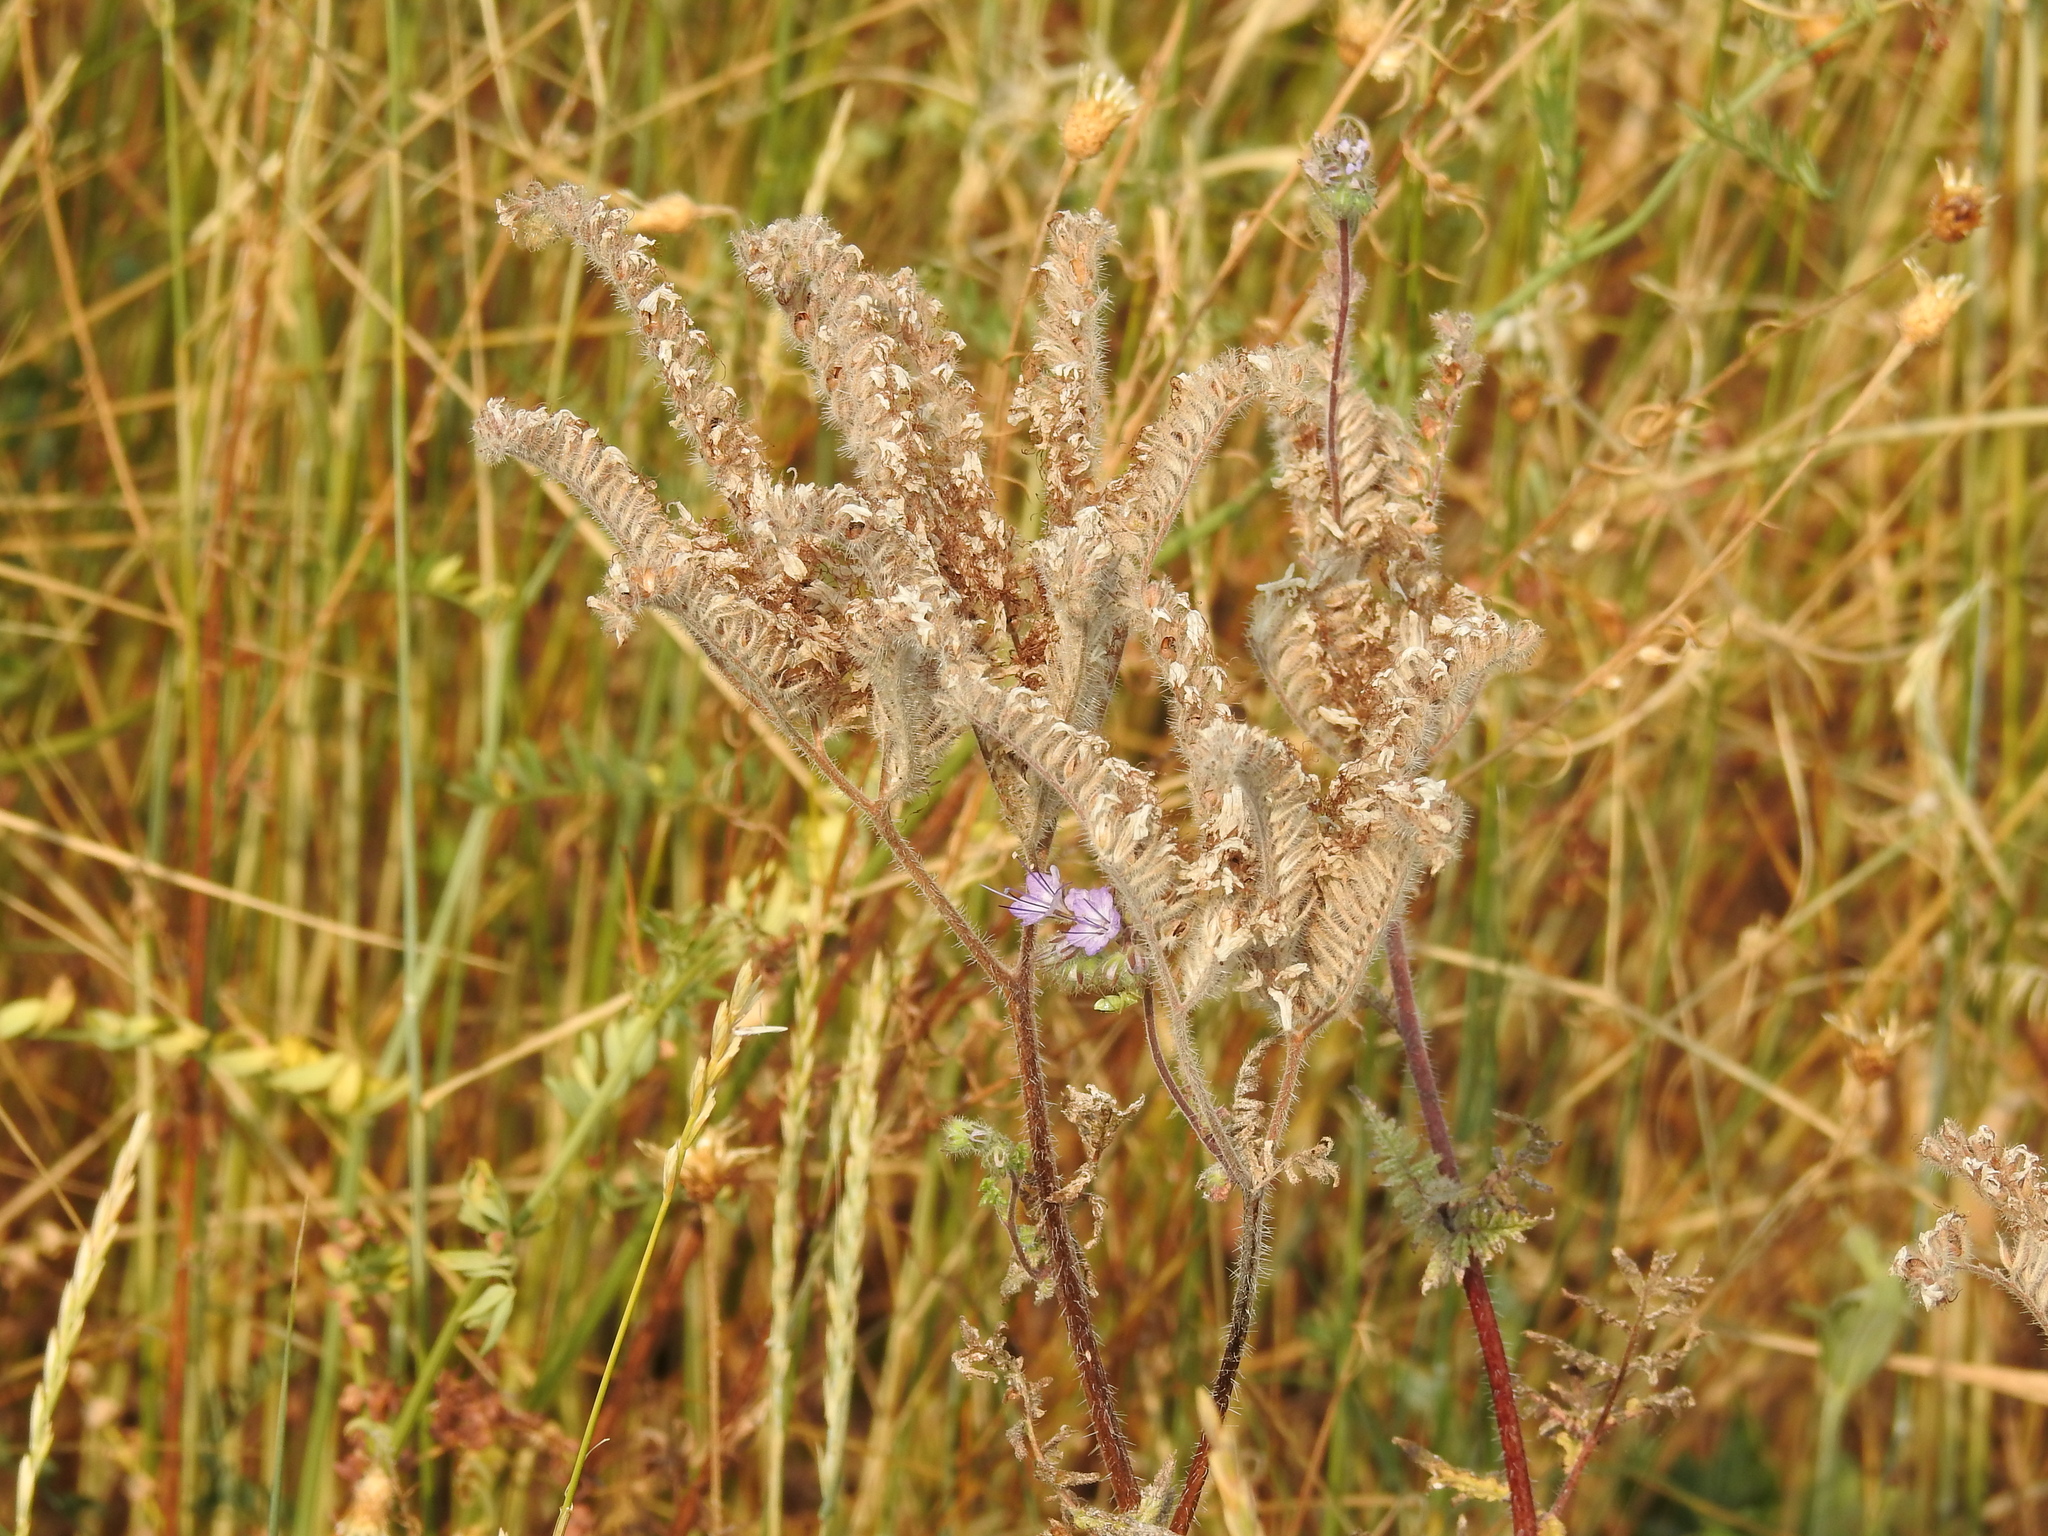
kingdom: Plantae
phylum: Tracheophyta
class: Magnoliopsida
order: Boraginales
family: Hydrophyllaceae
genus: Phacelia
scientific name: Phacelia tanacetifolia
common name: Phacelia
